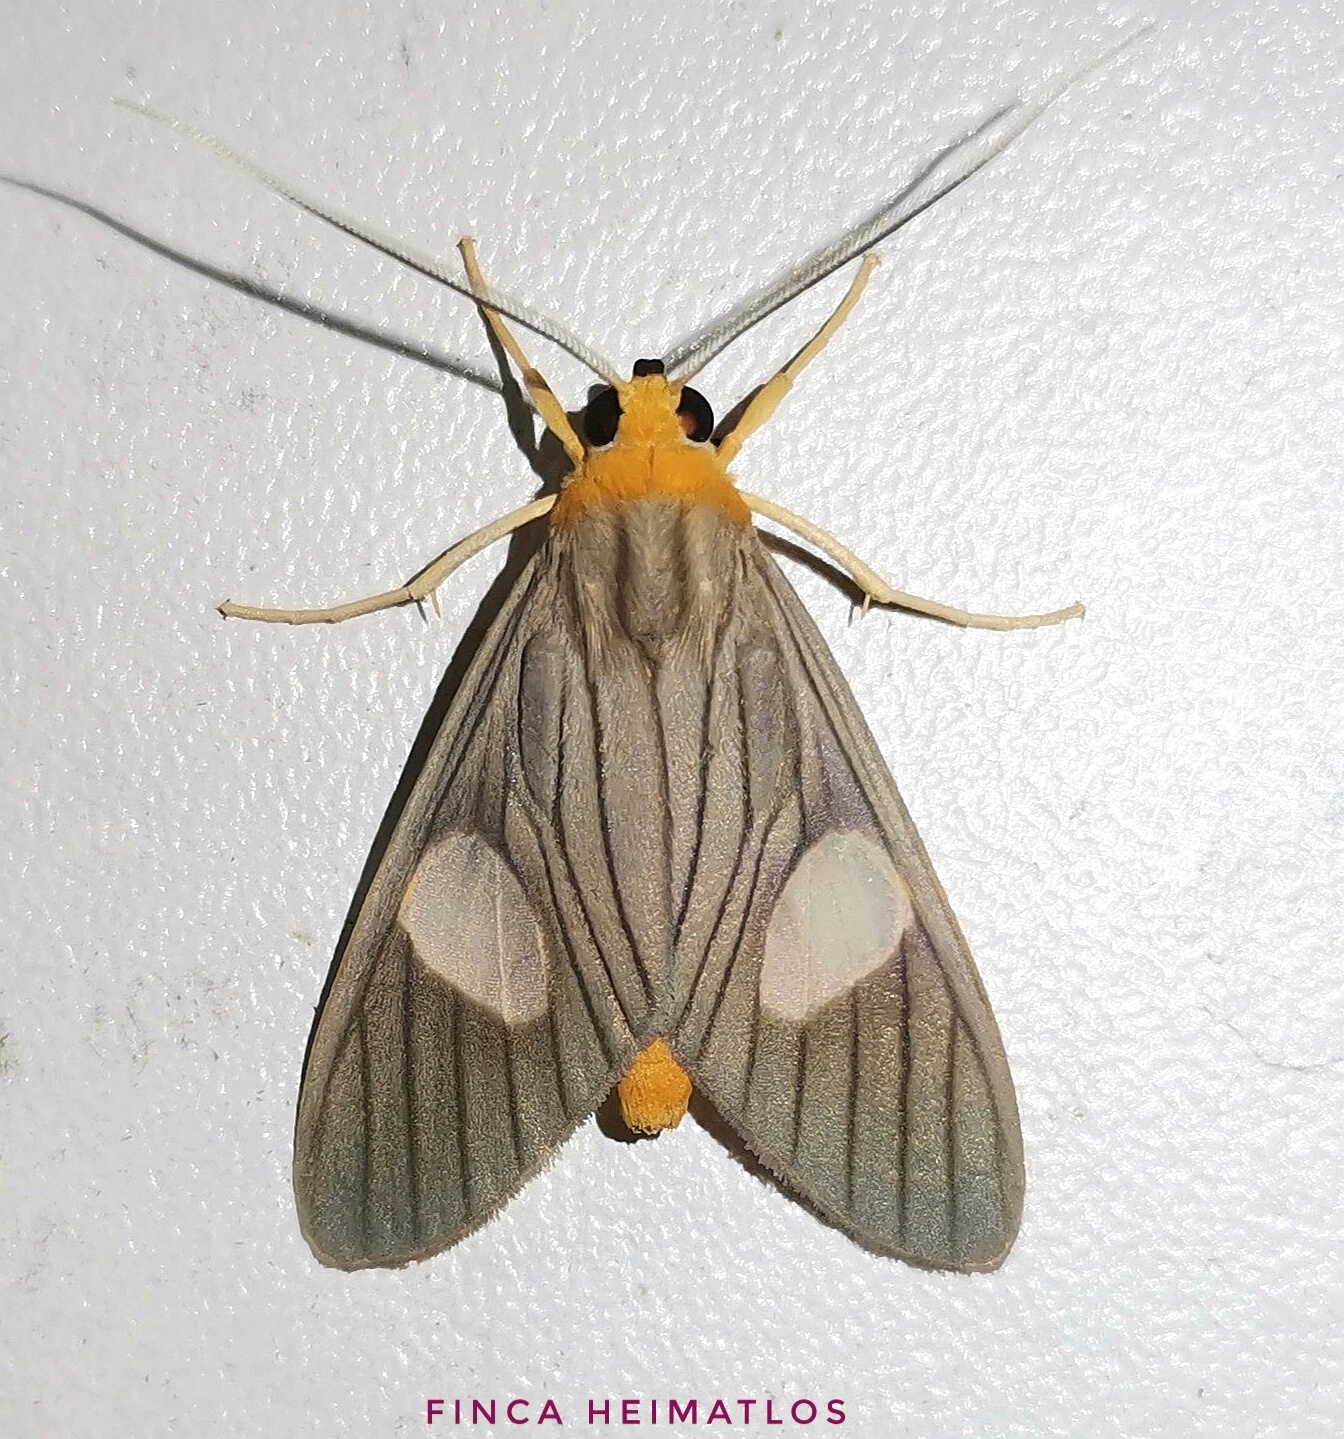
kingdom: Animalia
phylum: Arthropoda
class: Insecta
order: Lepidoptera
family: Erebidae
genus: Neritos
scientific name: Neritos sorex
